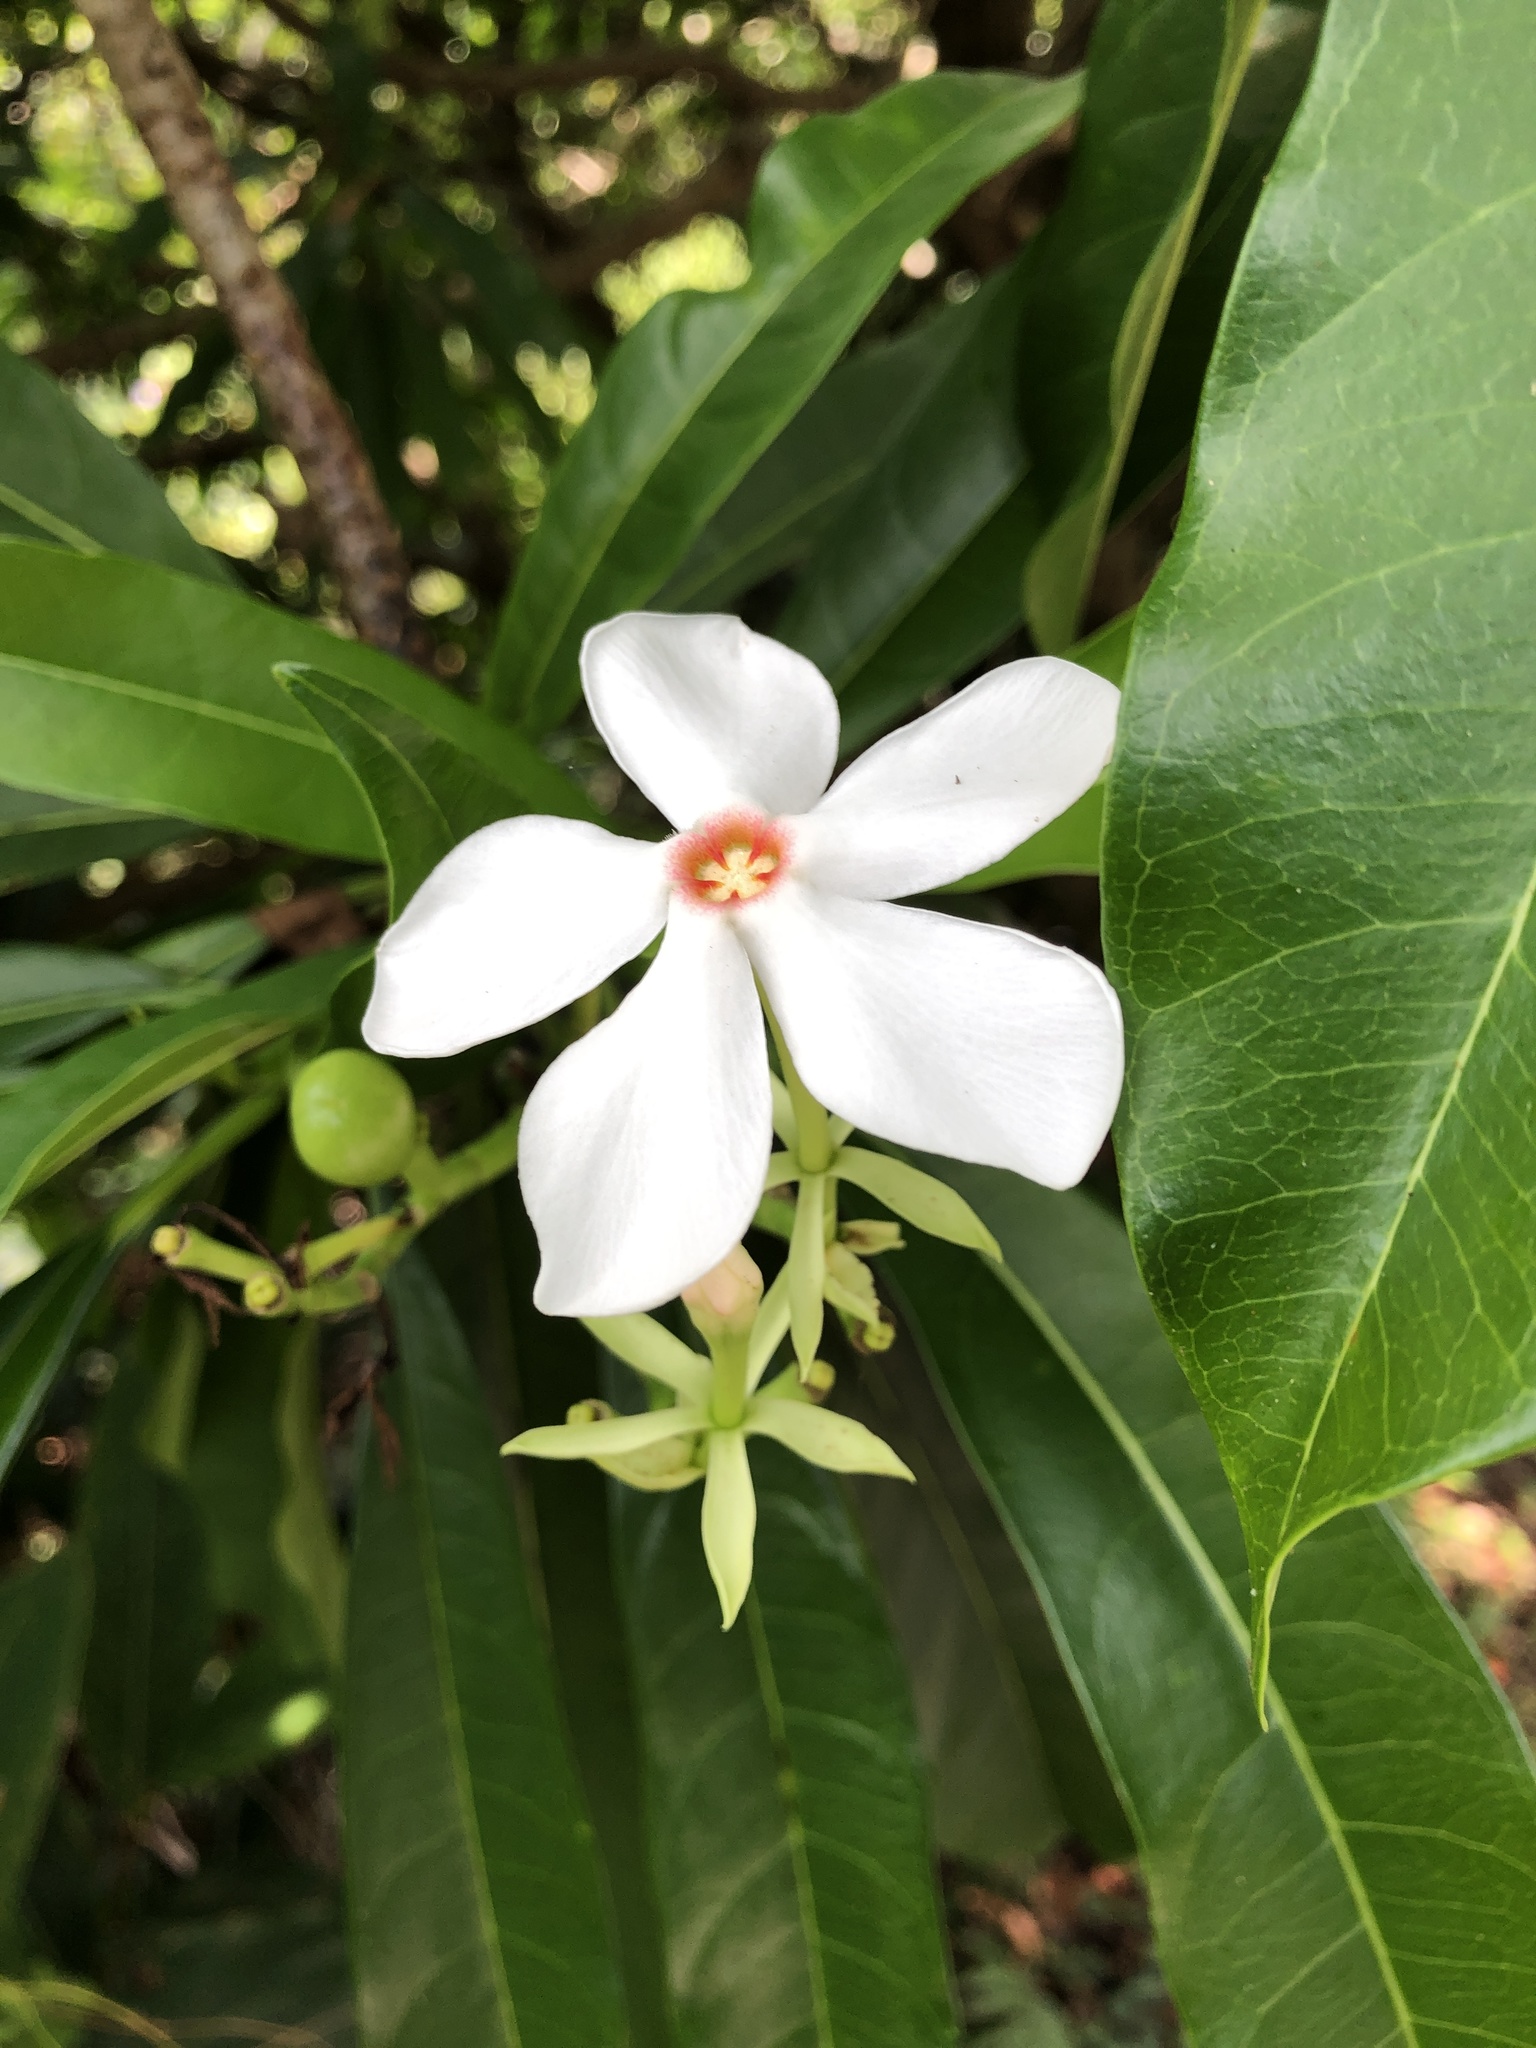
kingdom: Plantae
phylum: Tracheophyta
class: Magnoliopsida
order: Gentianales
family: Apocynaceae
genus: Cerbera
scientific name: Cerbera manghas
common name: Reva
